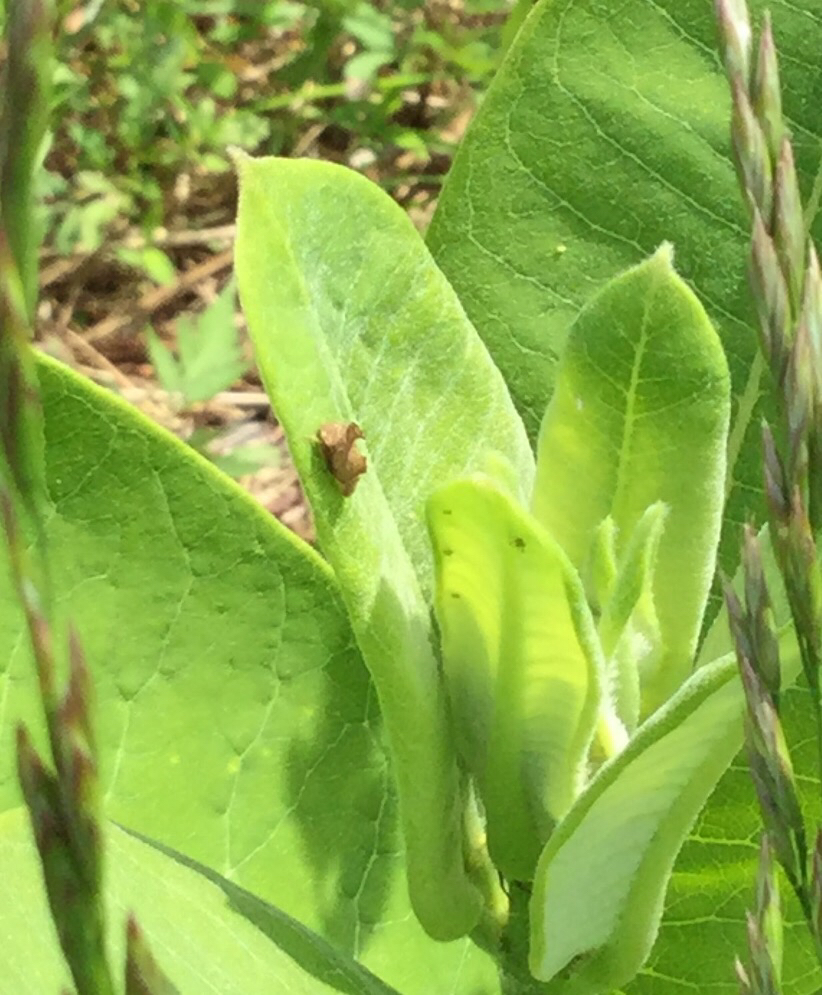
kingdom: Animalia
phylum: Arthropoda
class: Insecta
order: Hemiptera
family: Membracidae
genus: Entylia
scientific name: Entylia carinata
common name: Keeled treehopper
